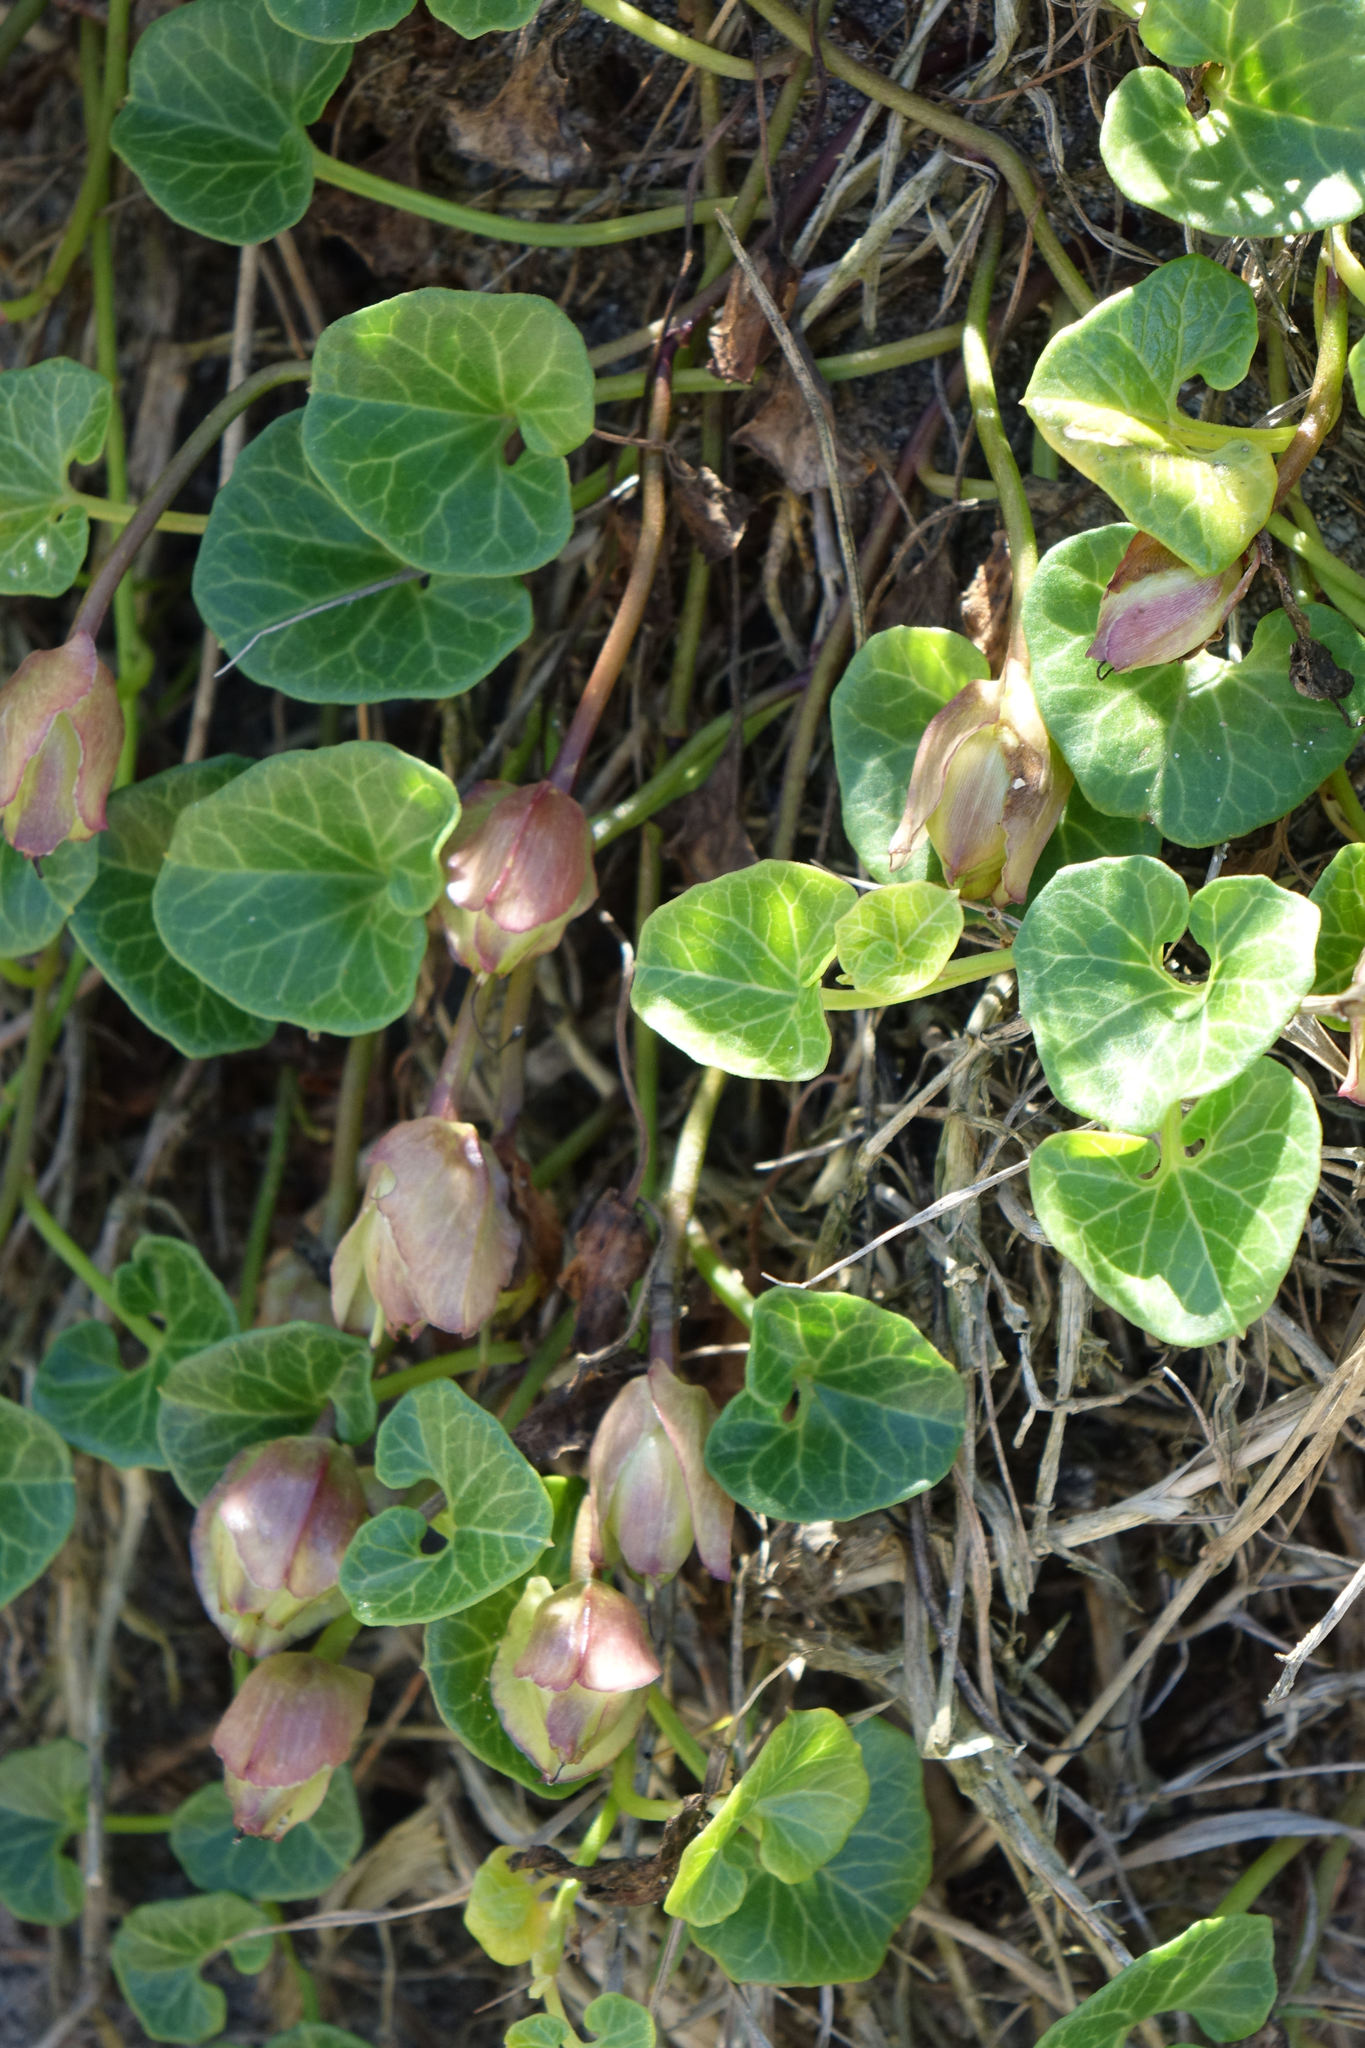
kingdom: Plantae
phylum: Tracheophyta
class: Magnoliopsida
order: Solanales
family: Convolvulaceae
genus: Calystegia
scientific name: Calystegia soldanella
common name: Sea bindweed
